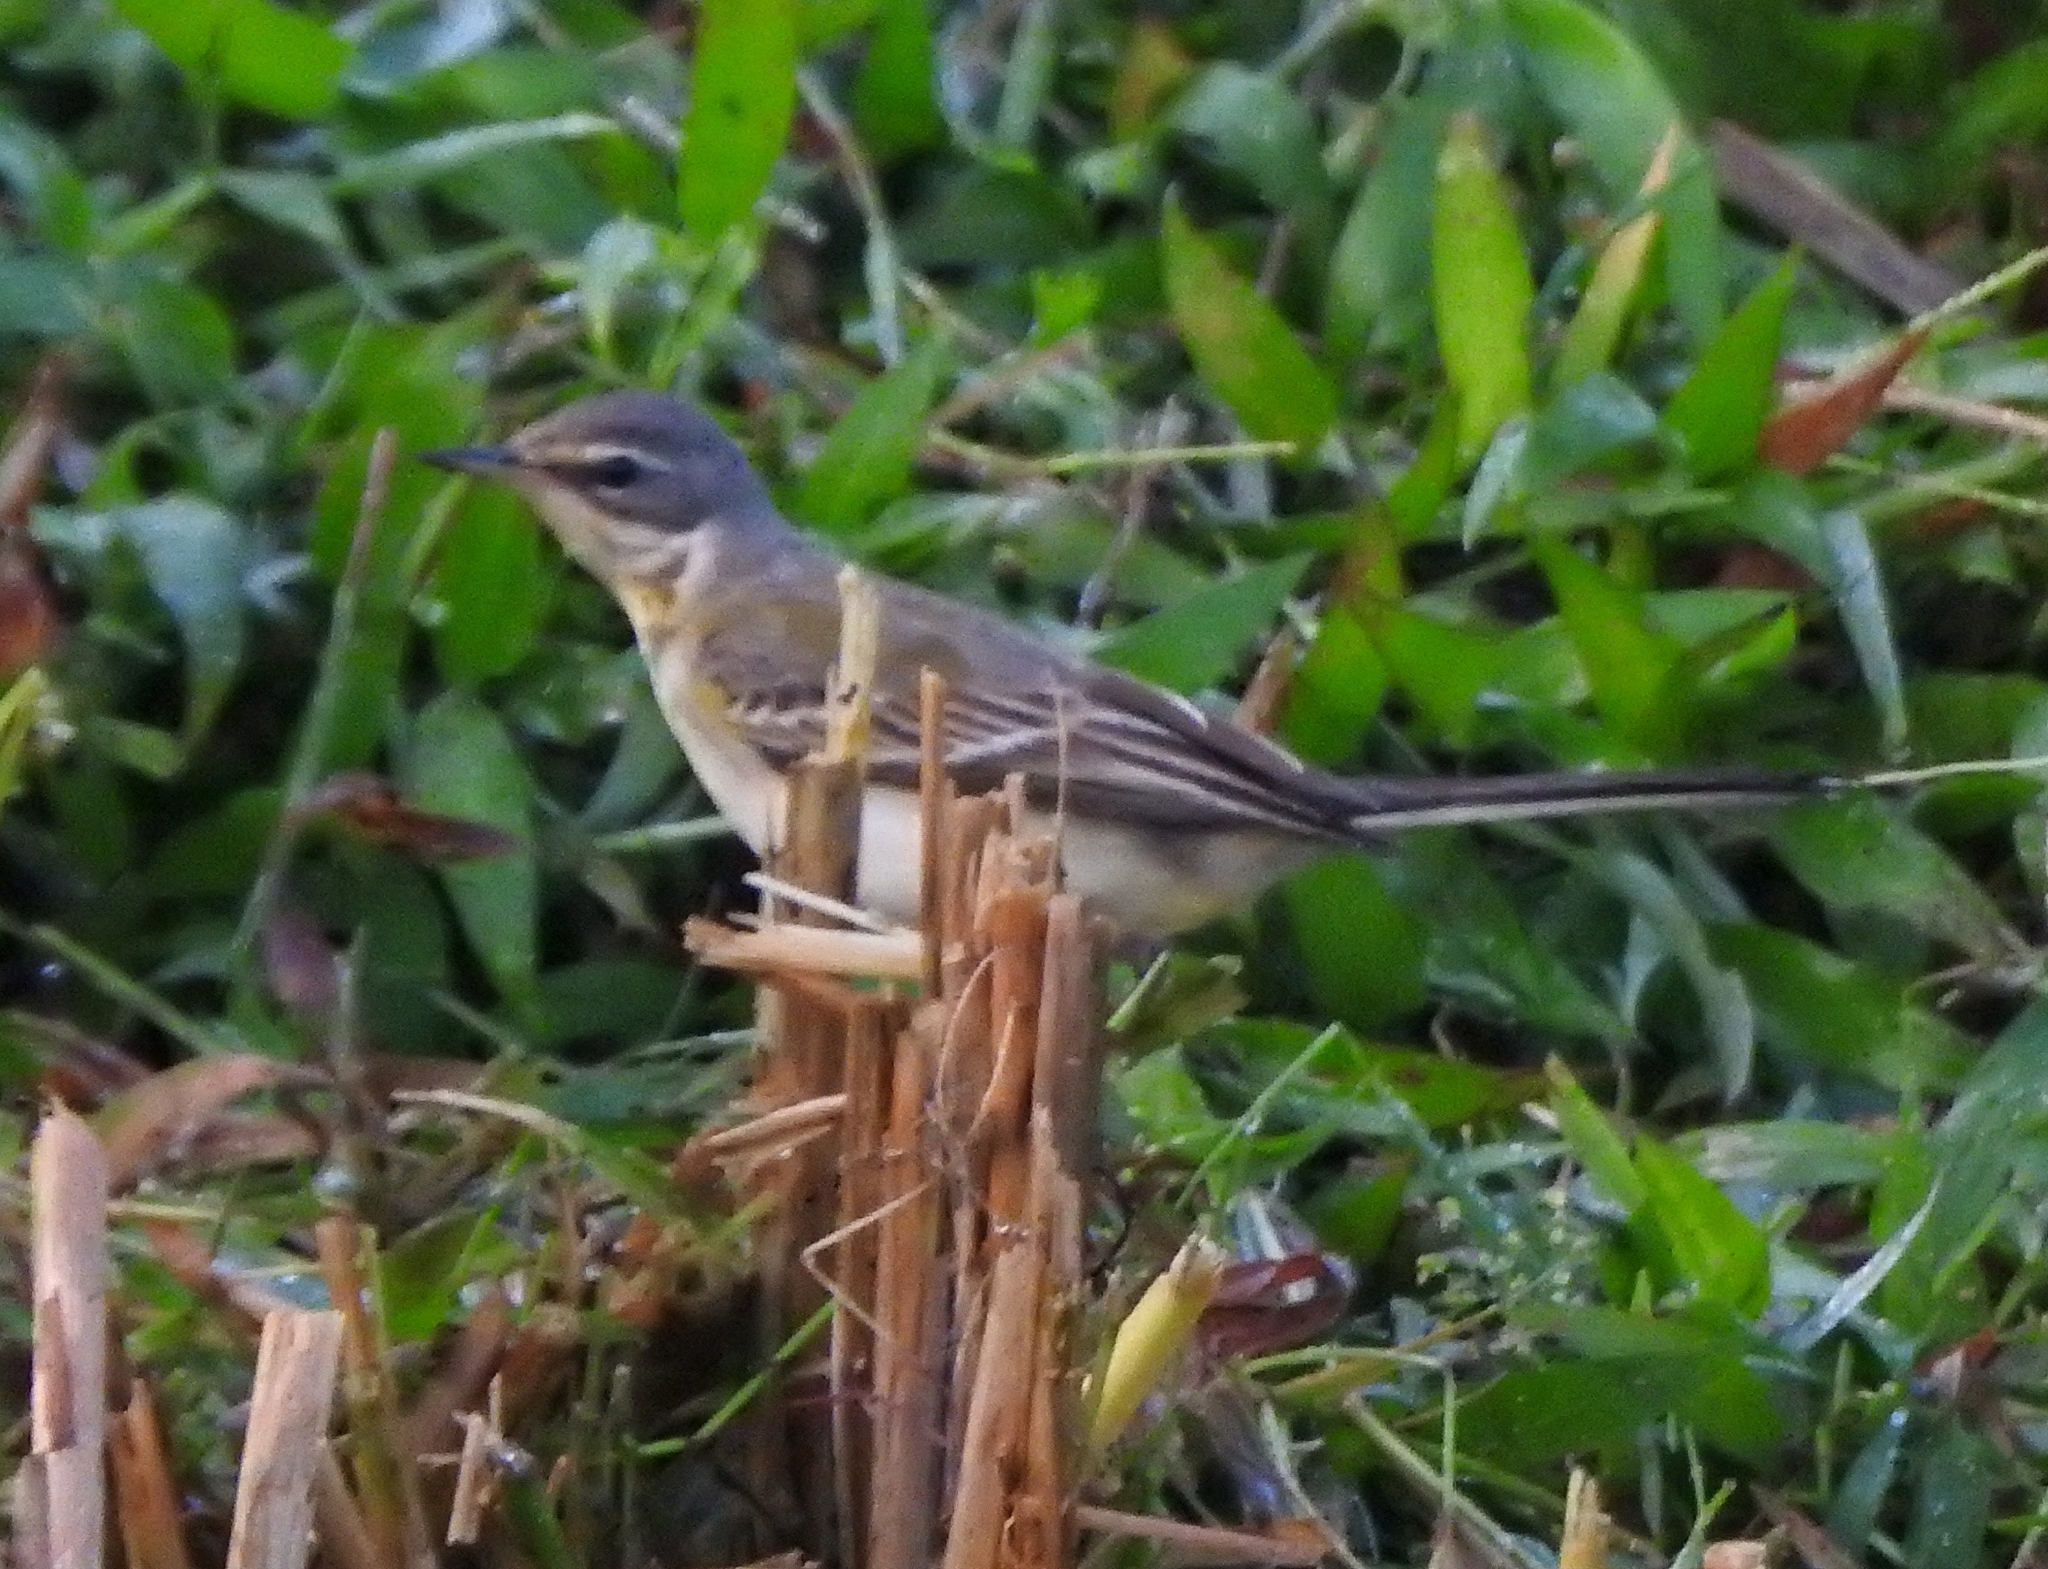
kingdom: Animalia
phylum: Chordata
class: Aves
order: Passeriformes
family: Motacillidae
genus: Motacilla
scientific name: Motacilla tschutschensis
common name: Eastern yellow wagtail
